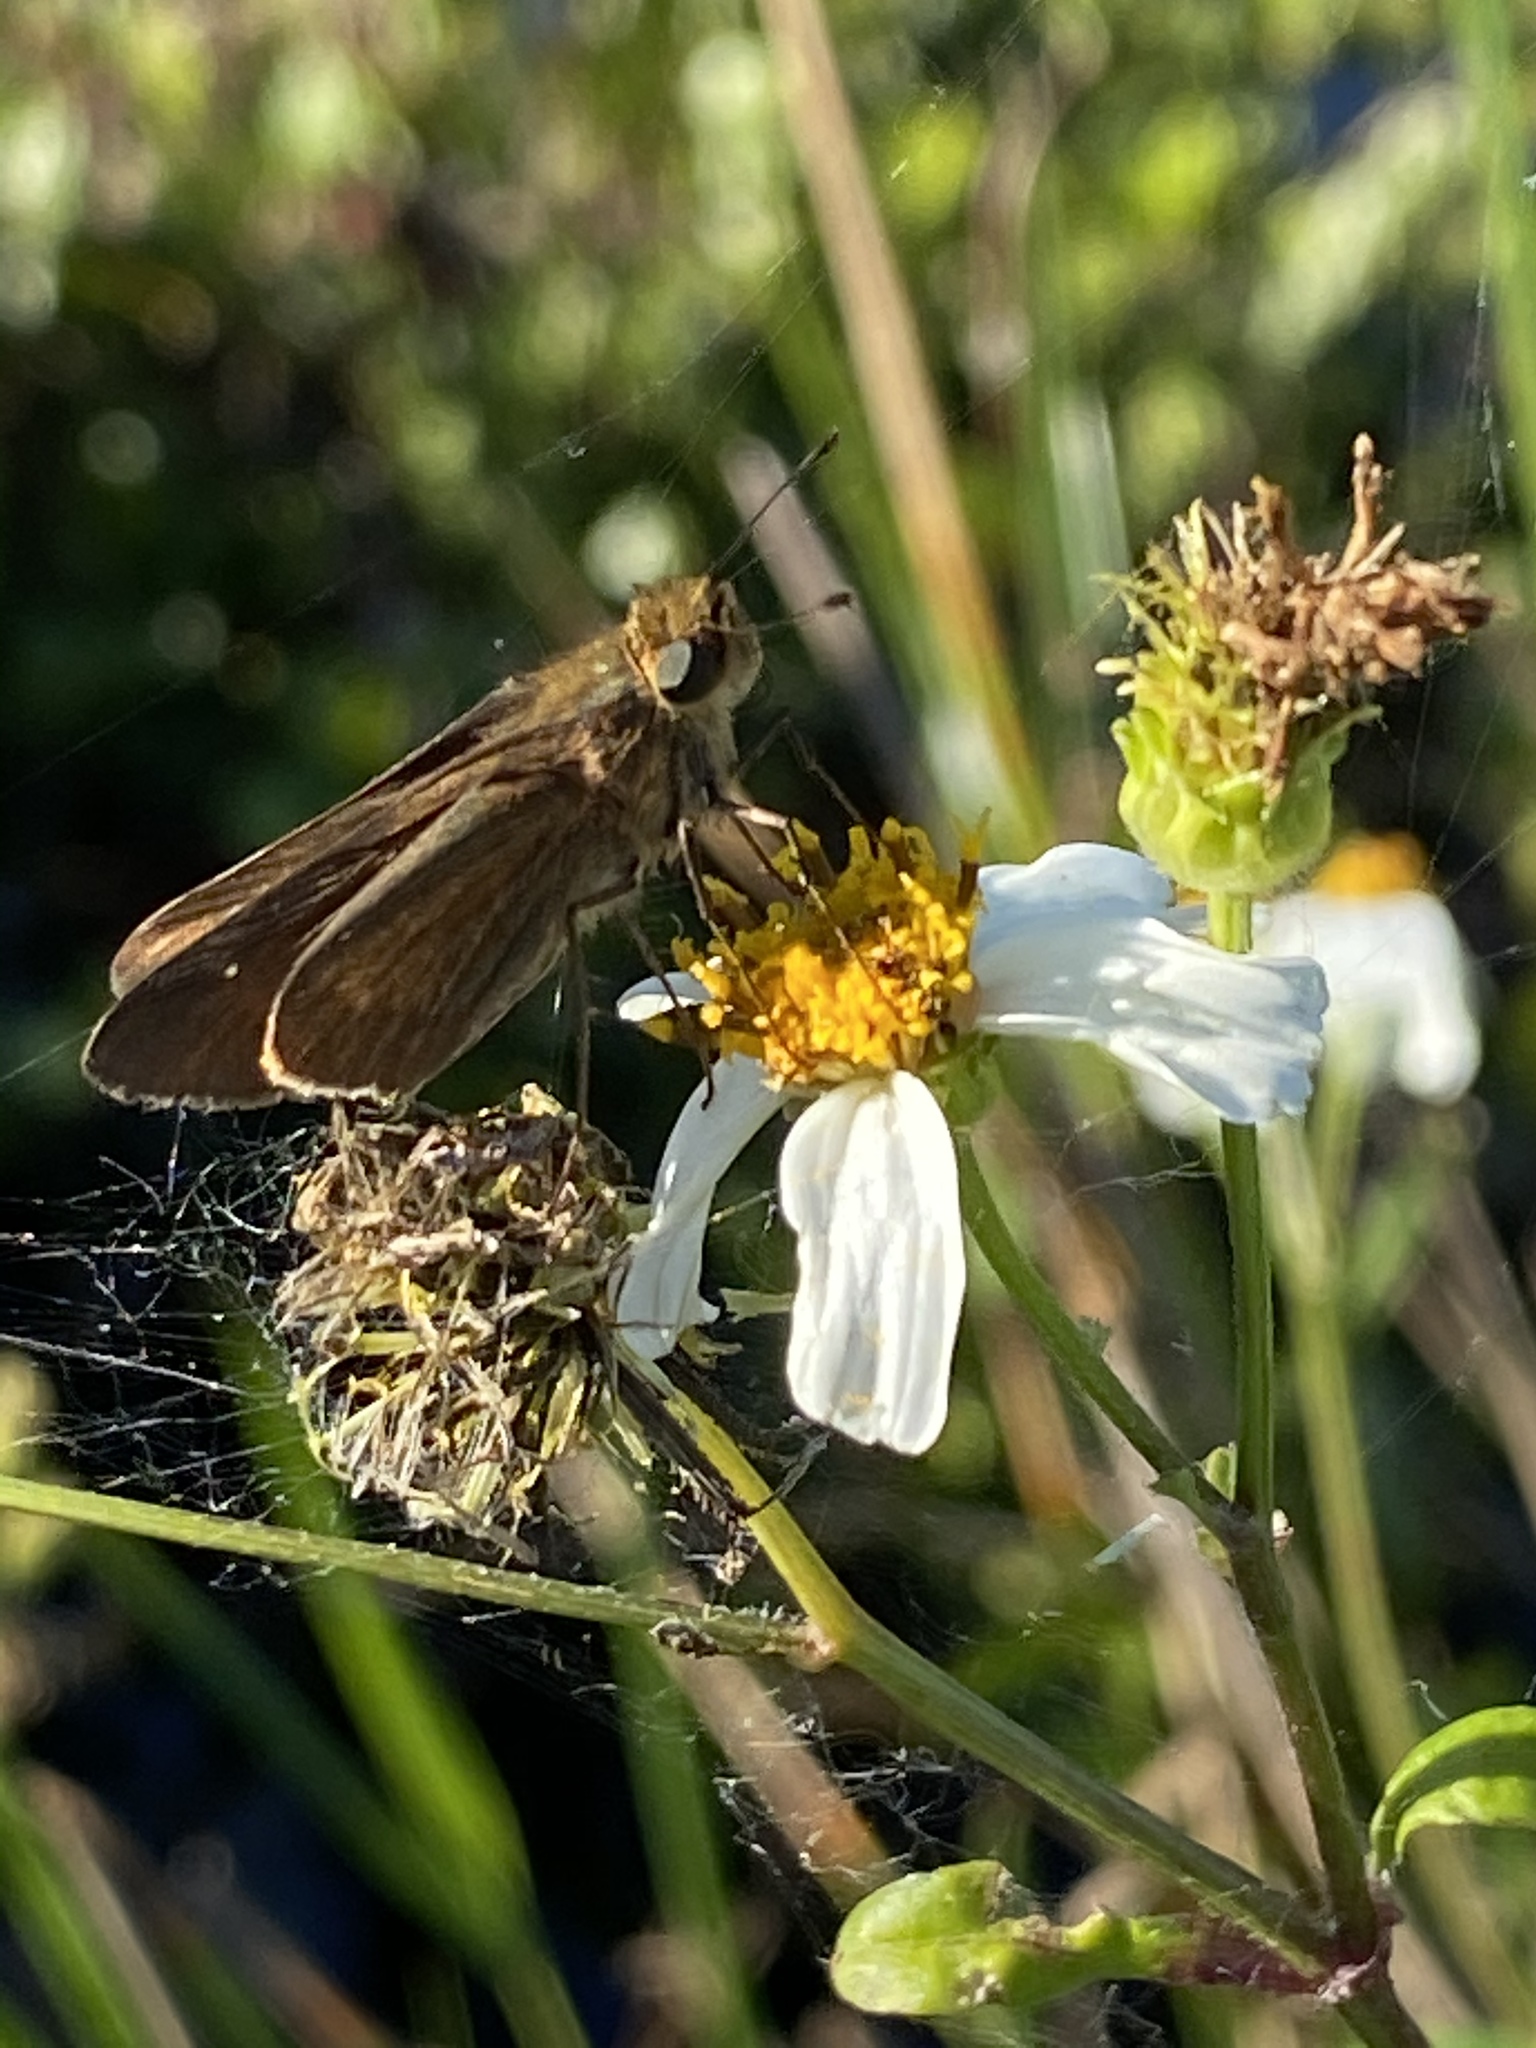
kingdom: Animalia
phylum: Arthropoda
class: Insecta
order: Lepidoptera
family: Hesperiidae
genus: Panoquina
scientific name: Panoquina ocola
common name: Ocola skipper
